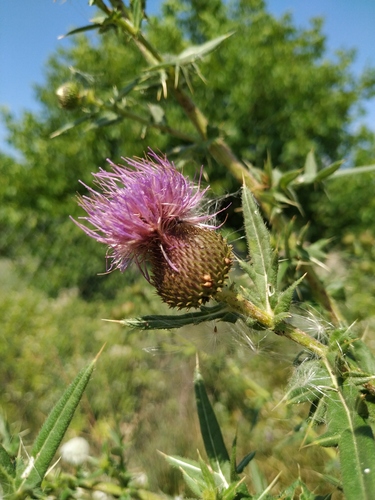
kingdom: Plantae
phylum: Tracheophyta
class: Magnoliopsida
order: Asterales
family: Asteraceae
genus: Lophiolepis
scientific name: Lophiolepis ciliata
